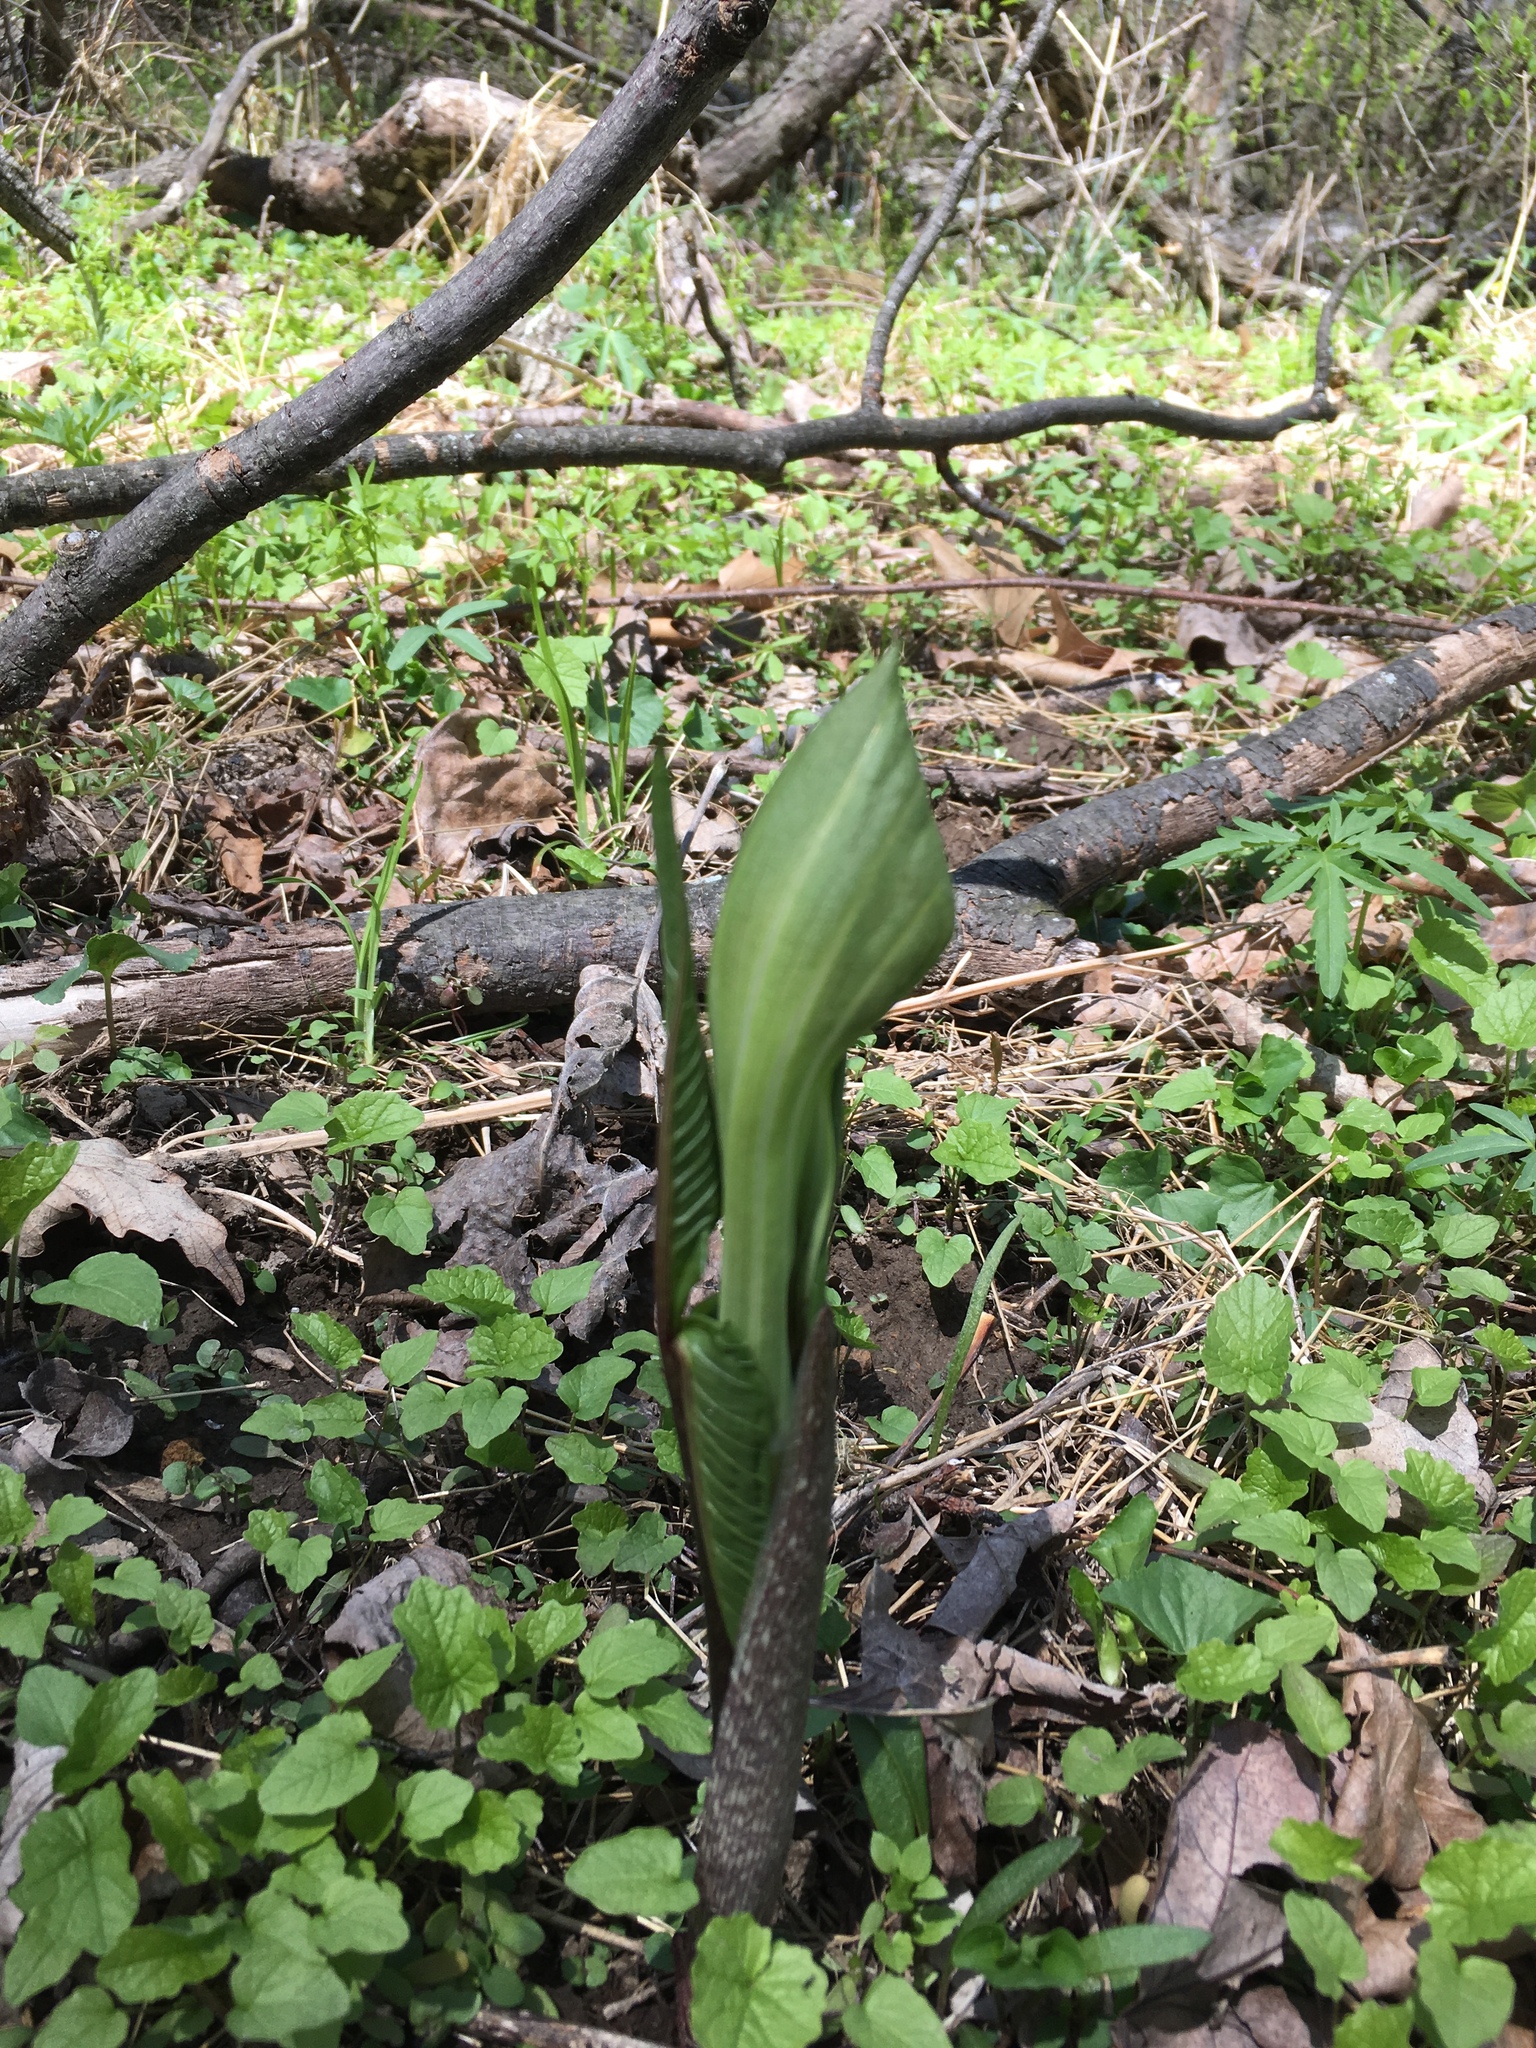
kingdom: Plantae
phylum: Tracheophyta
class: Liliopsida
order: Alismatales
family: Araceae
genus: Arisaema
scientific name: Arisaema triphyllum
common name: Jack-in-the-pulpit
